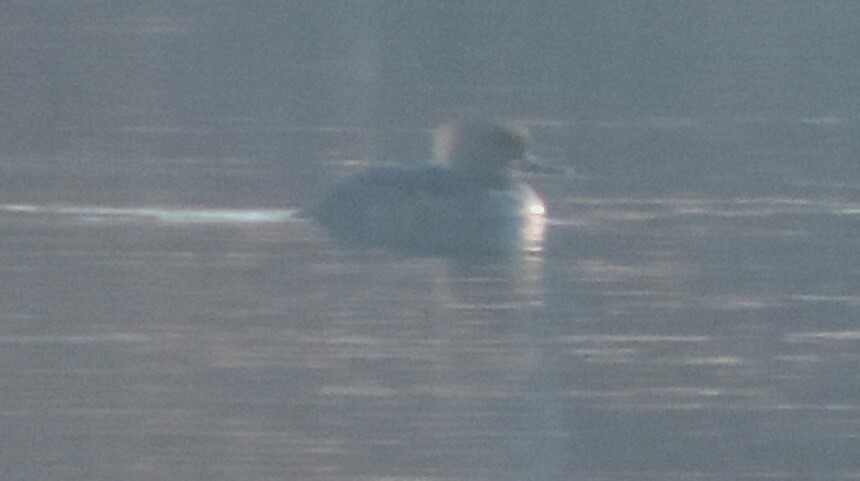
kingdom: Animalia
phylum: Chordata
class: Aves
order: Anseriformes
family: Anatidae
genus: Lophodytes
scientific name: Lophodytes cucullatus
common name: Hooded merganser
